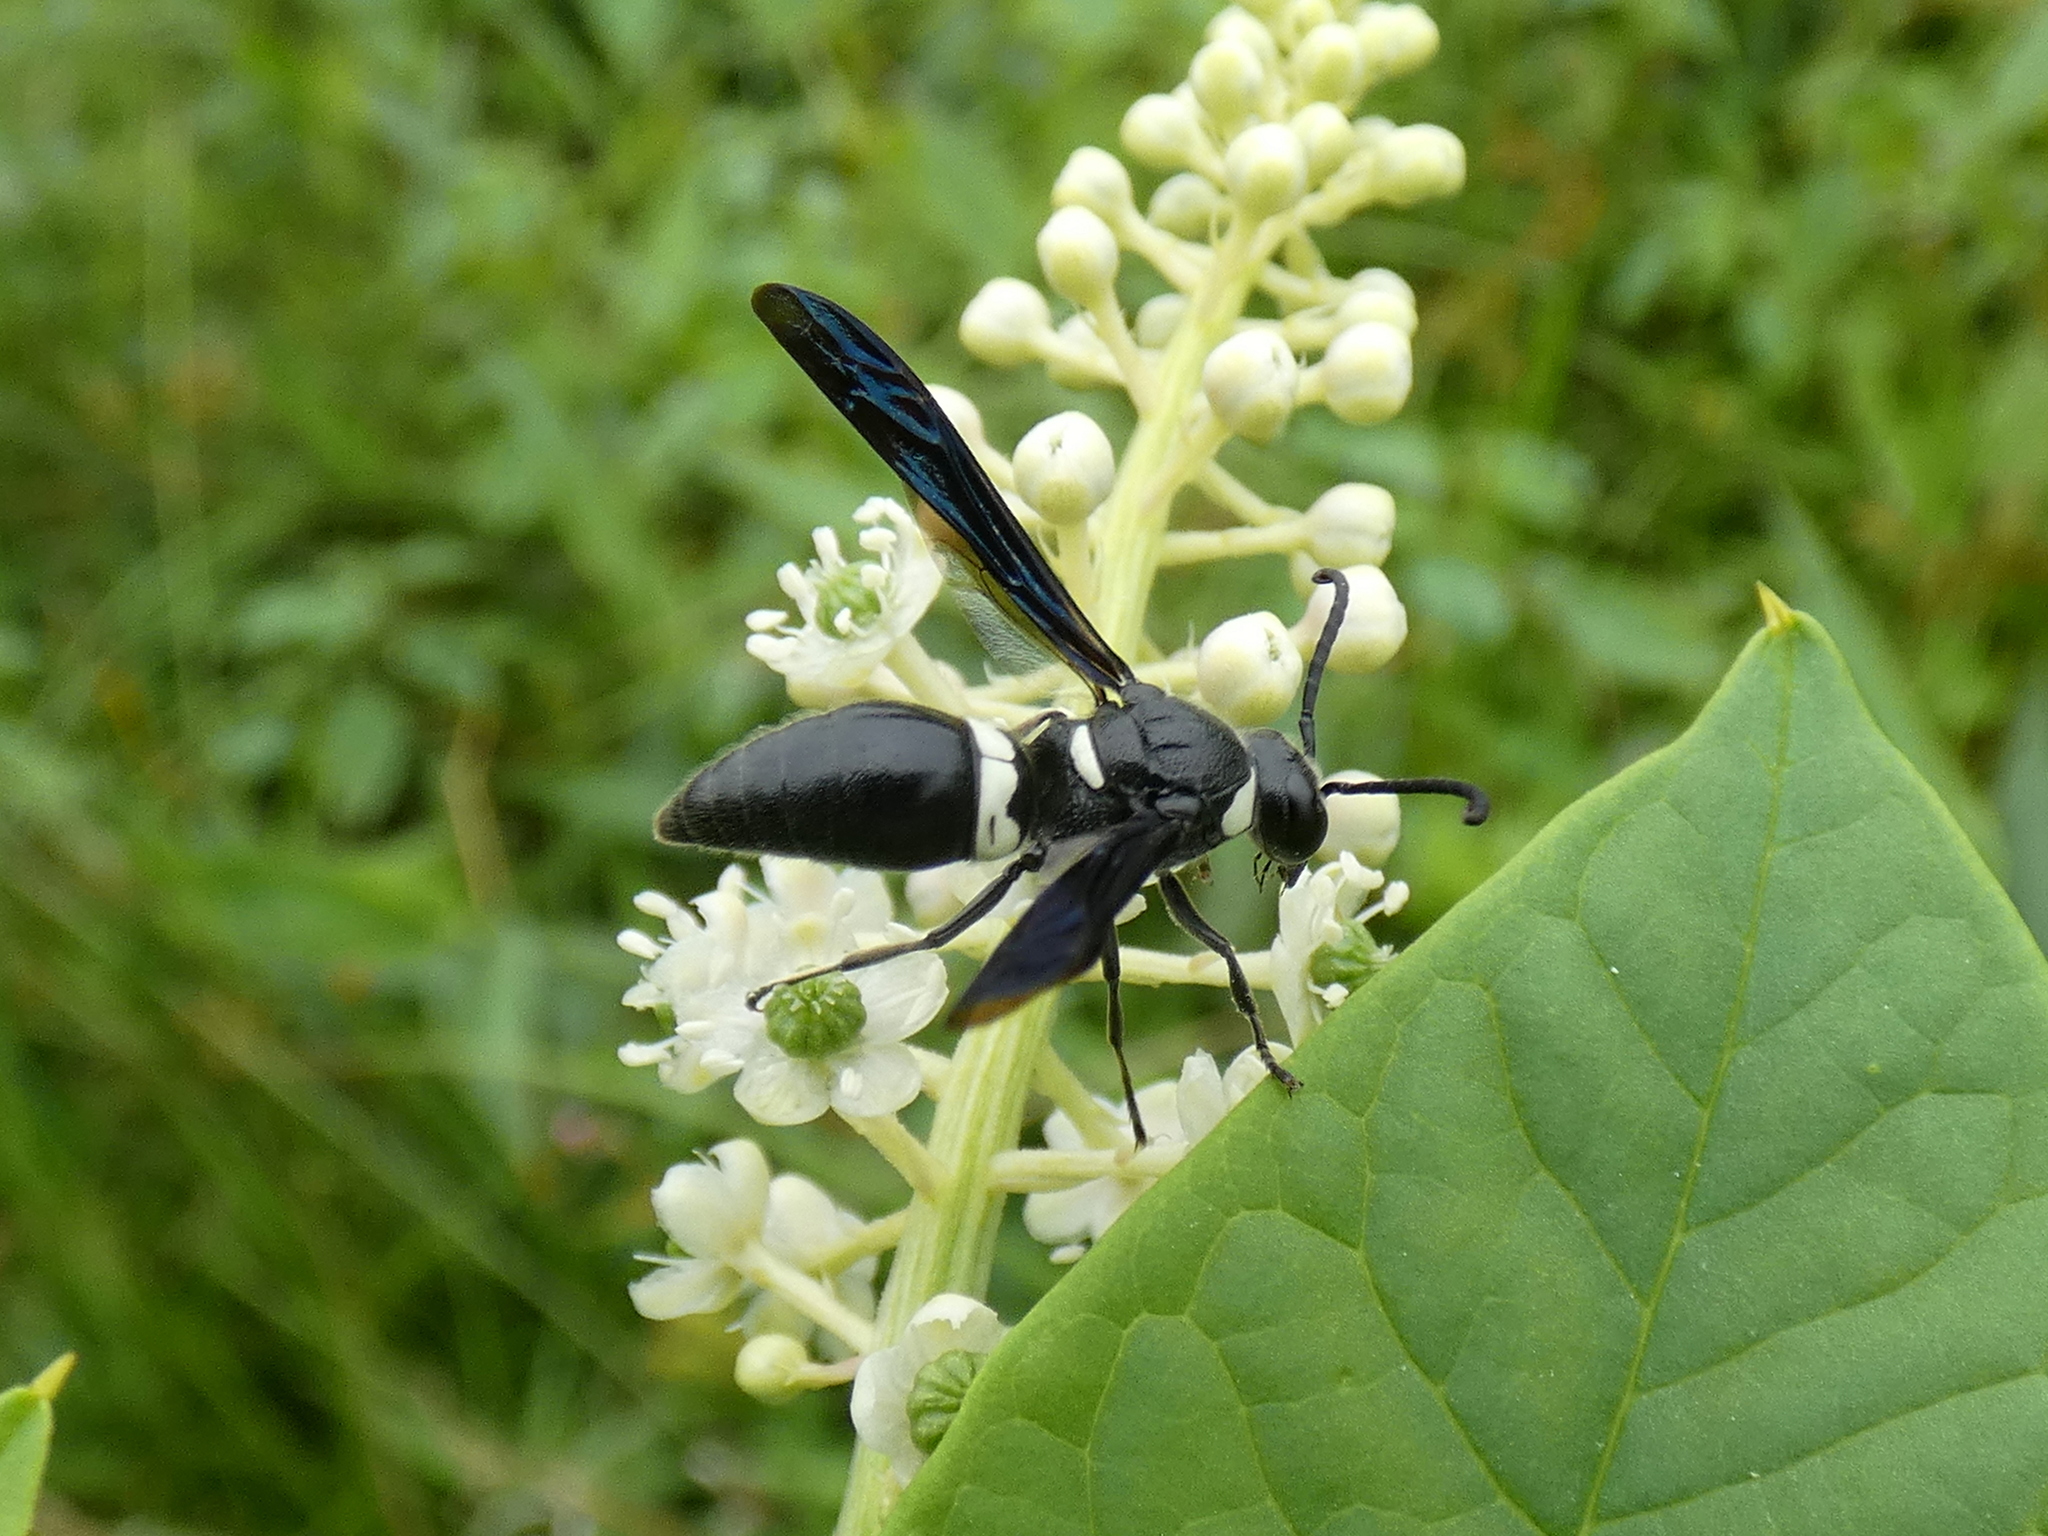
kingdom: Animalia
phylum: Arthropoda
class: Insecta
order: Hymenoptera
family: Eumenidae
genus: Monobia
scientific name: Monobia quadridens
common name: Four-toothed mason wasp
